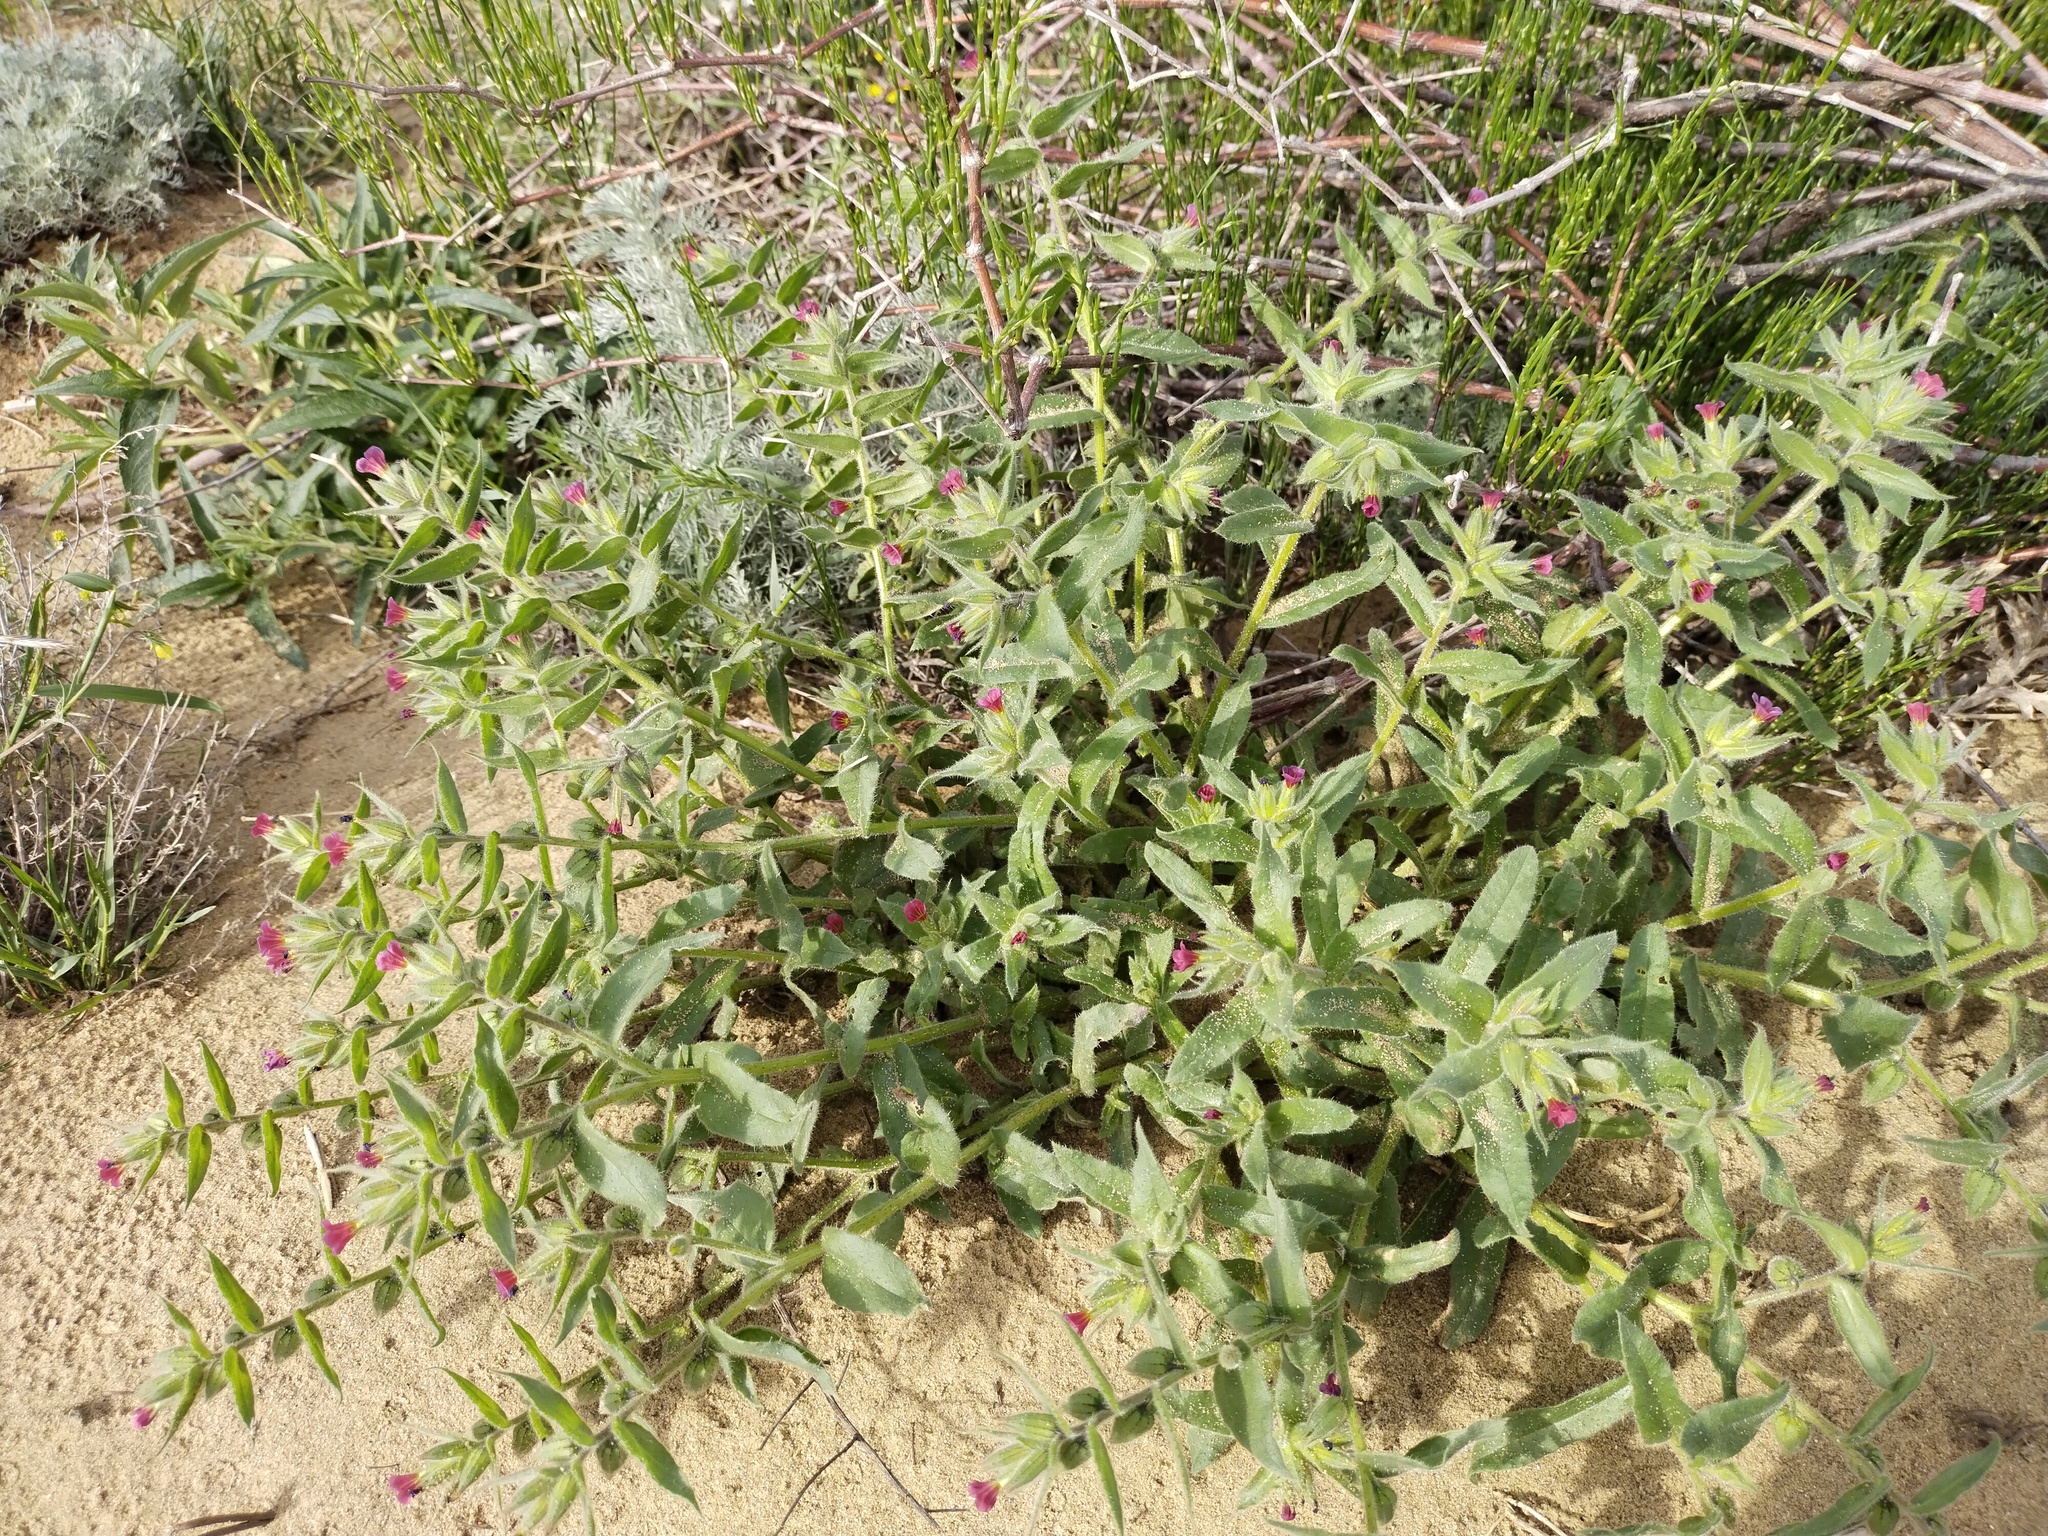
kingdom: Plantae
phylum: Tracheophyta
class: Magnoliopsida
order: Boraginales
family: Boraginaceae
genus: Nonea
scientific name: Nonea rosea
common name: Pink nonea
